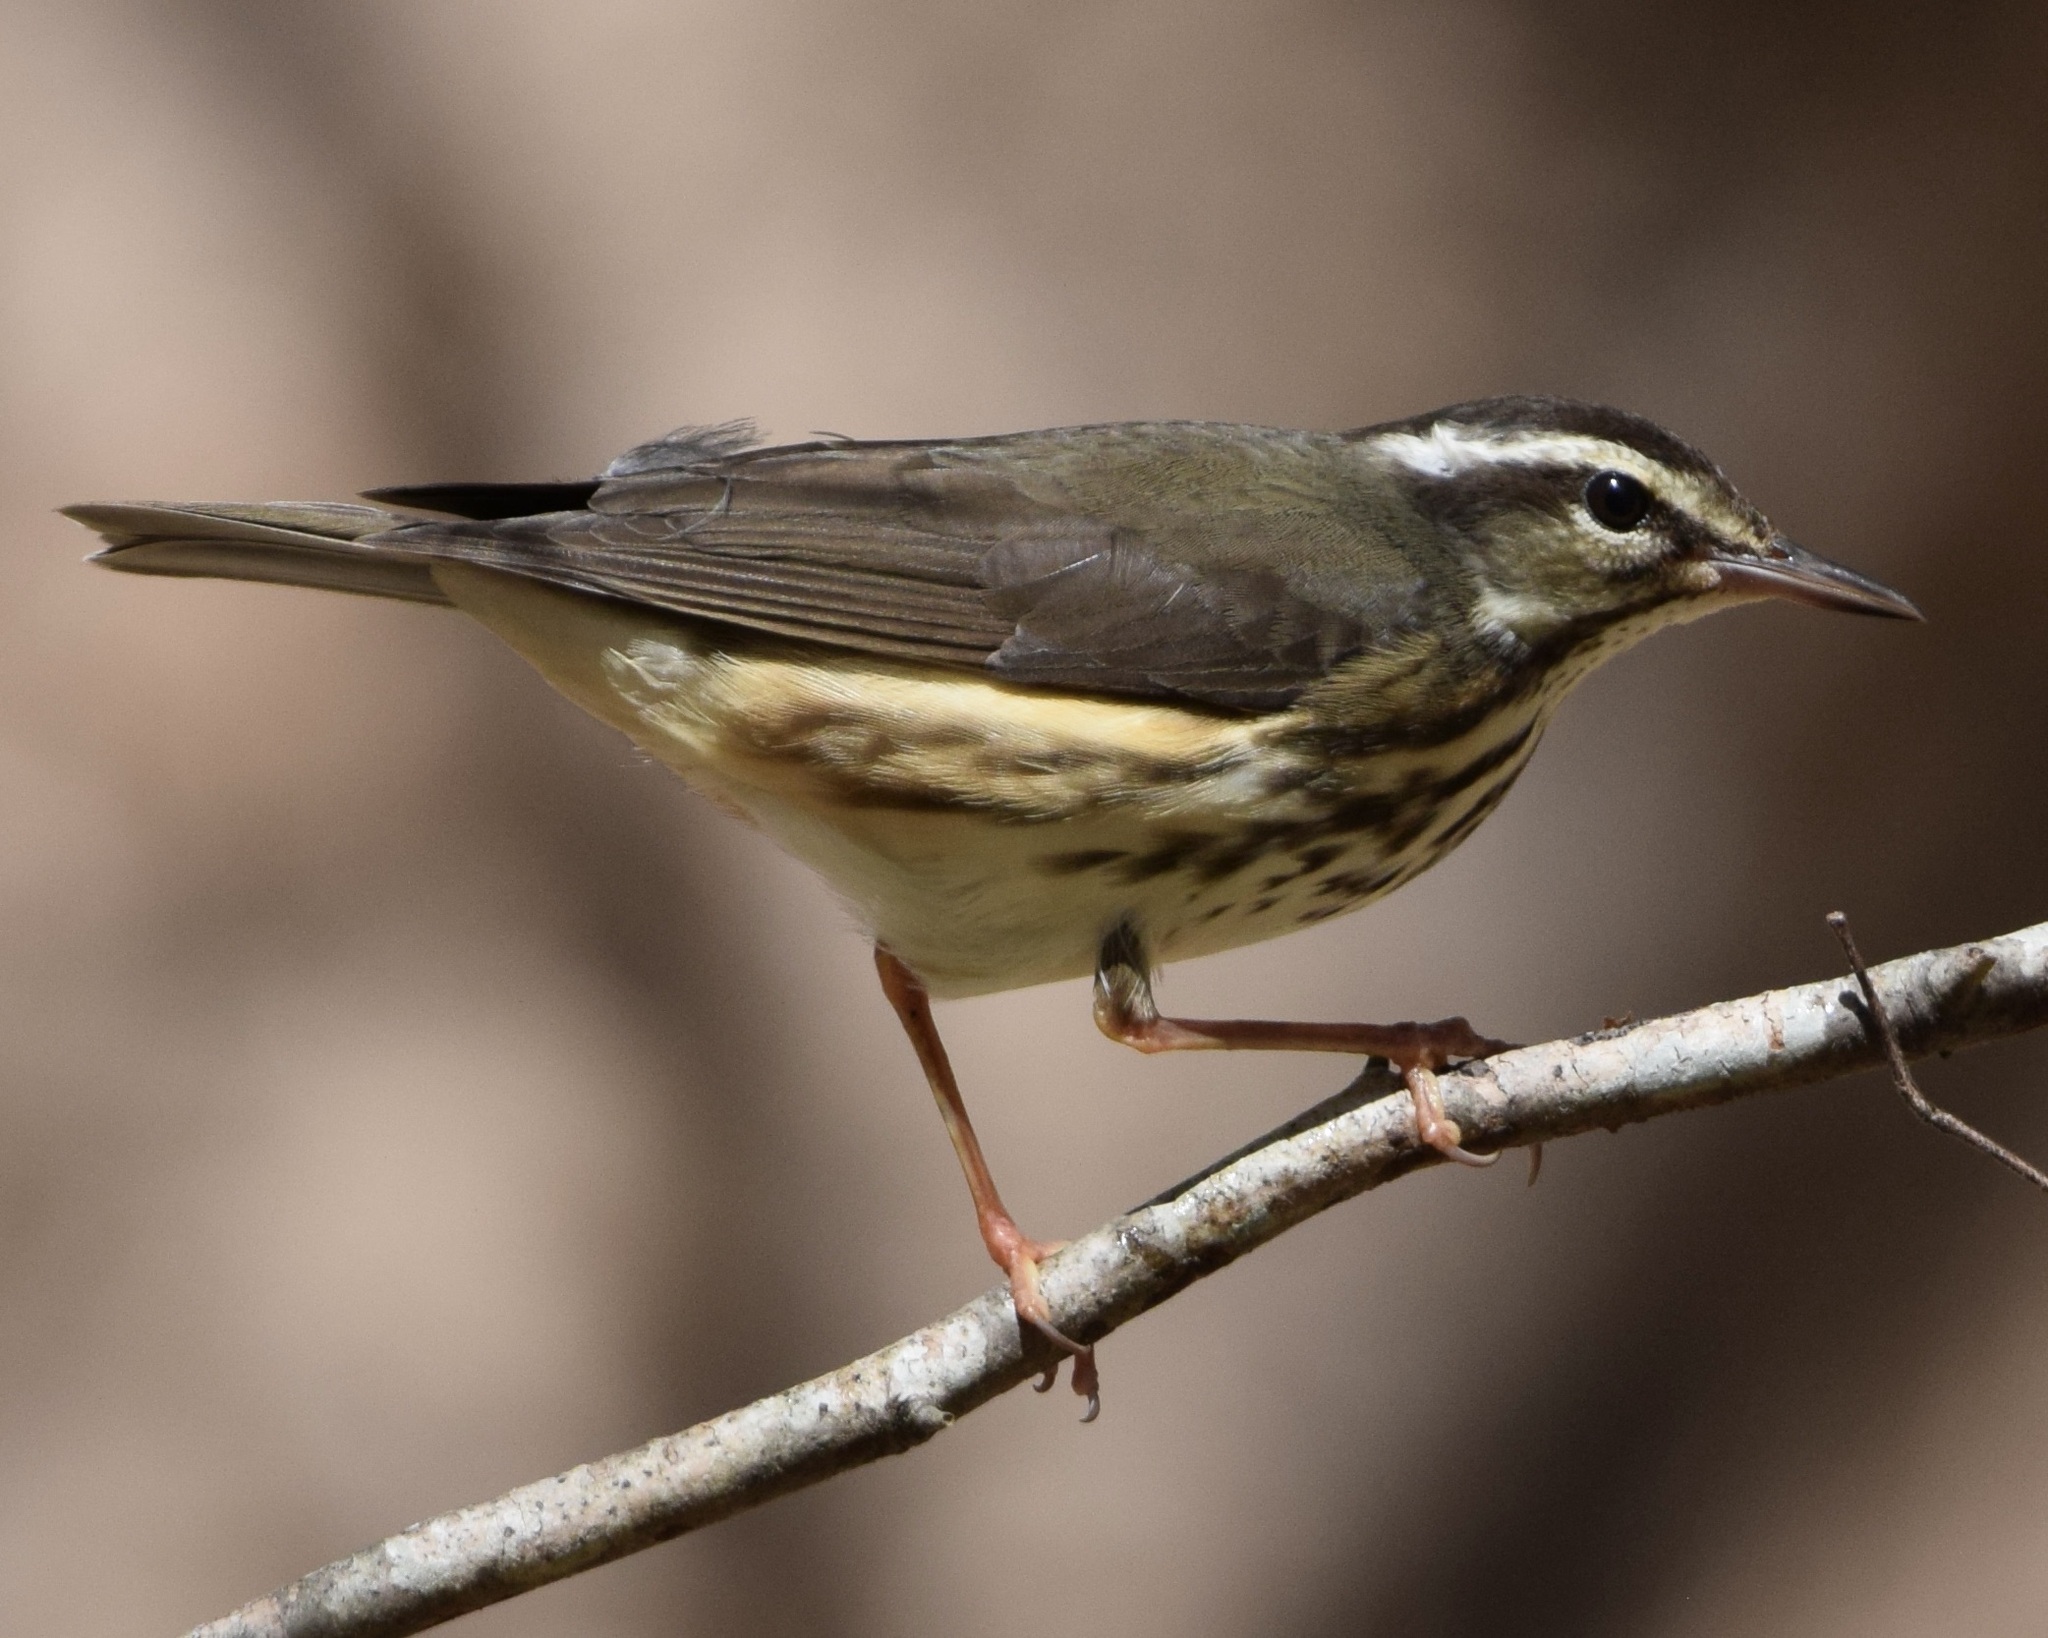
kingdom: Animalia
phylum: Chordata
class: Aves
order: Passeriformes
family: Parulidae
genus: Parkesia
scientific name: Parkesia motacilla
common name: Louisiana waterthrush
